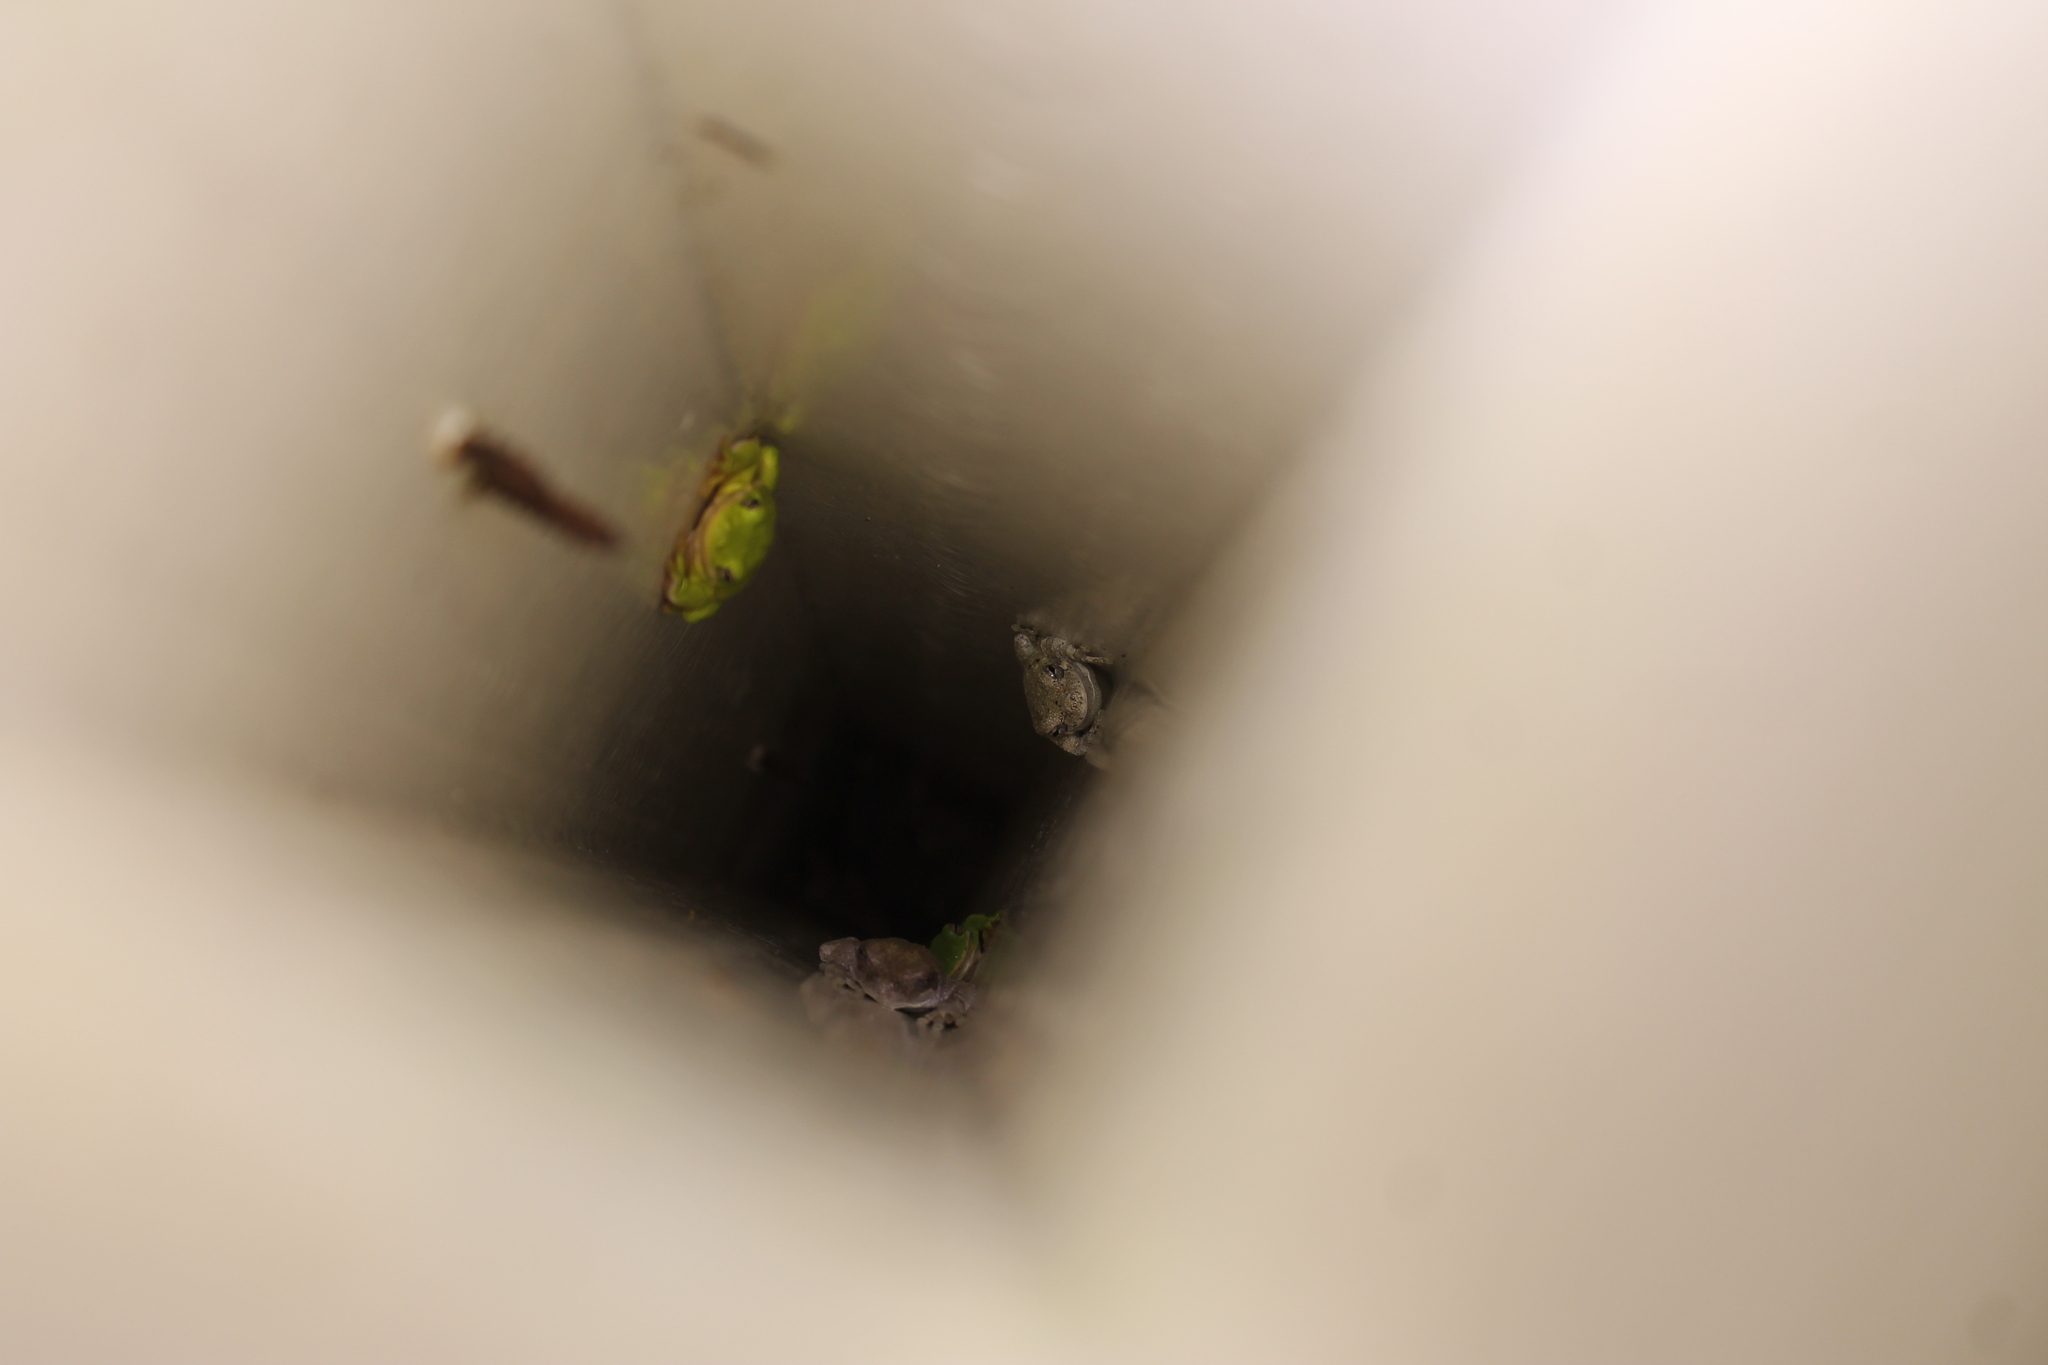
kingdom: Animalia
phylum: Chordata
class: Amphibia
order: Anura
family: Hylidae
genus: Dryophytes
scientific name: Dryophytes cinereus
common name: Green treefrog
